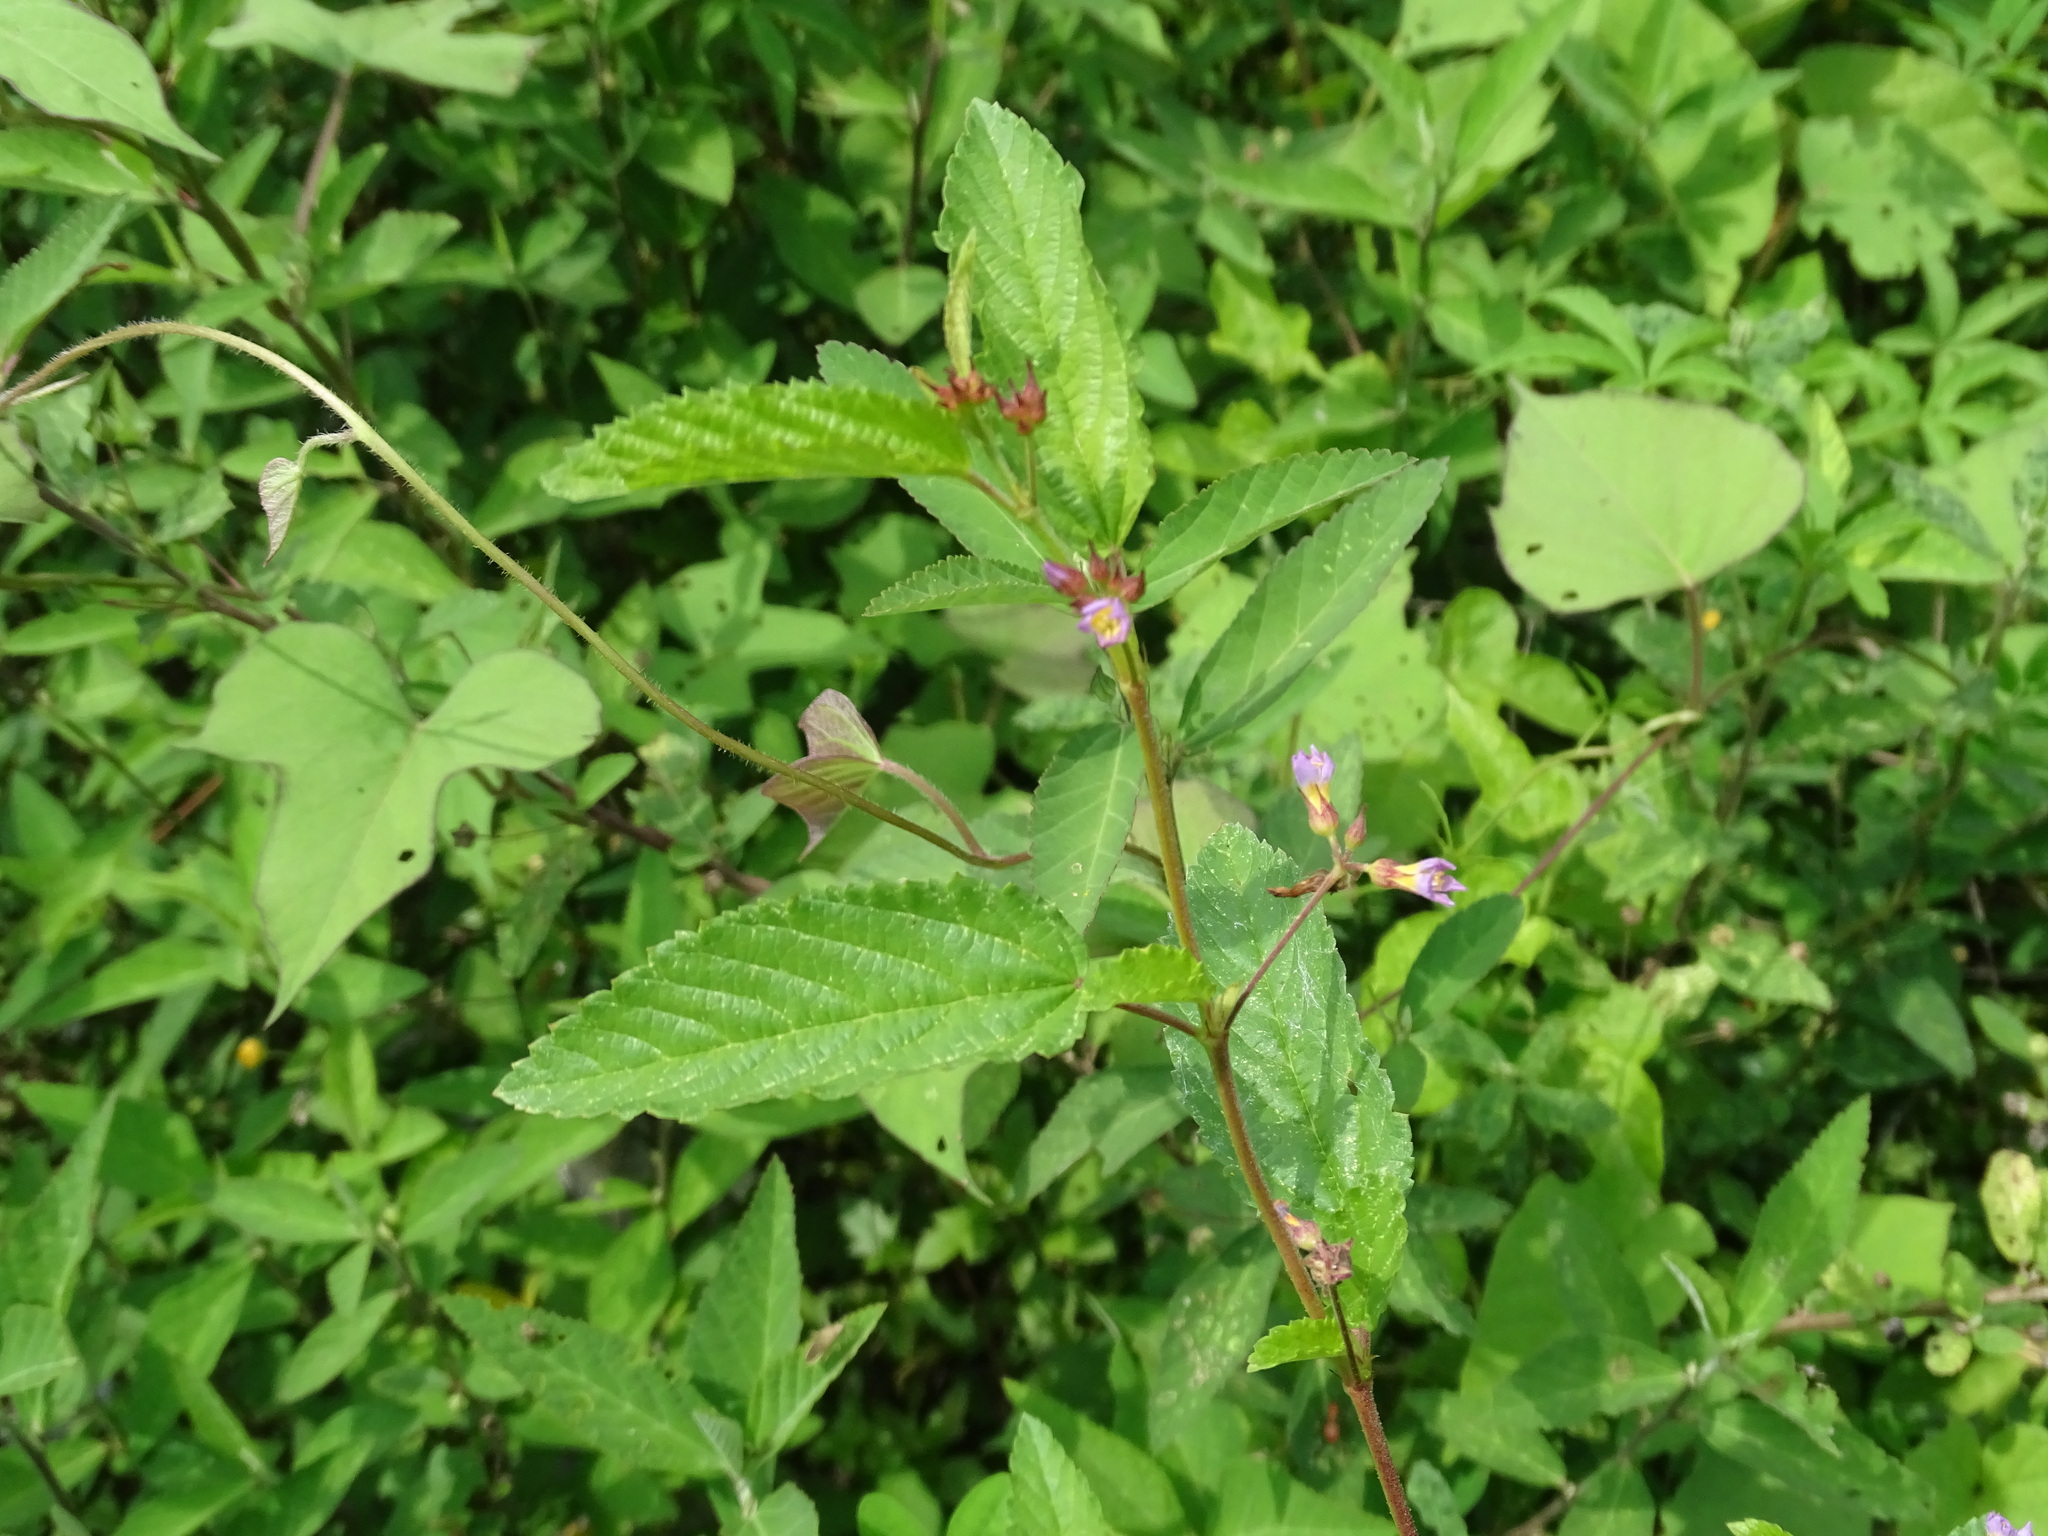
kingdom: Plantae
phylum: Tracheophyta
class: Magnoliopsida
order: Malvales
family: Malvaceae
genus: Melochia
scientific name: Melochia pyramidata
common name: Pyramidflower
